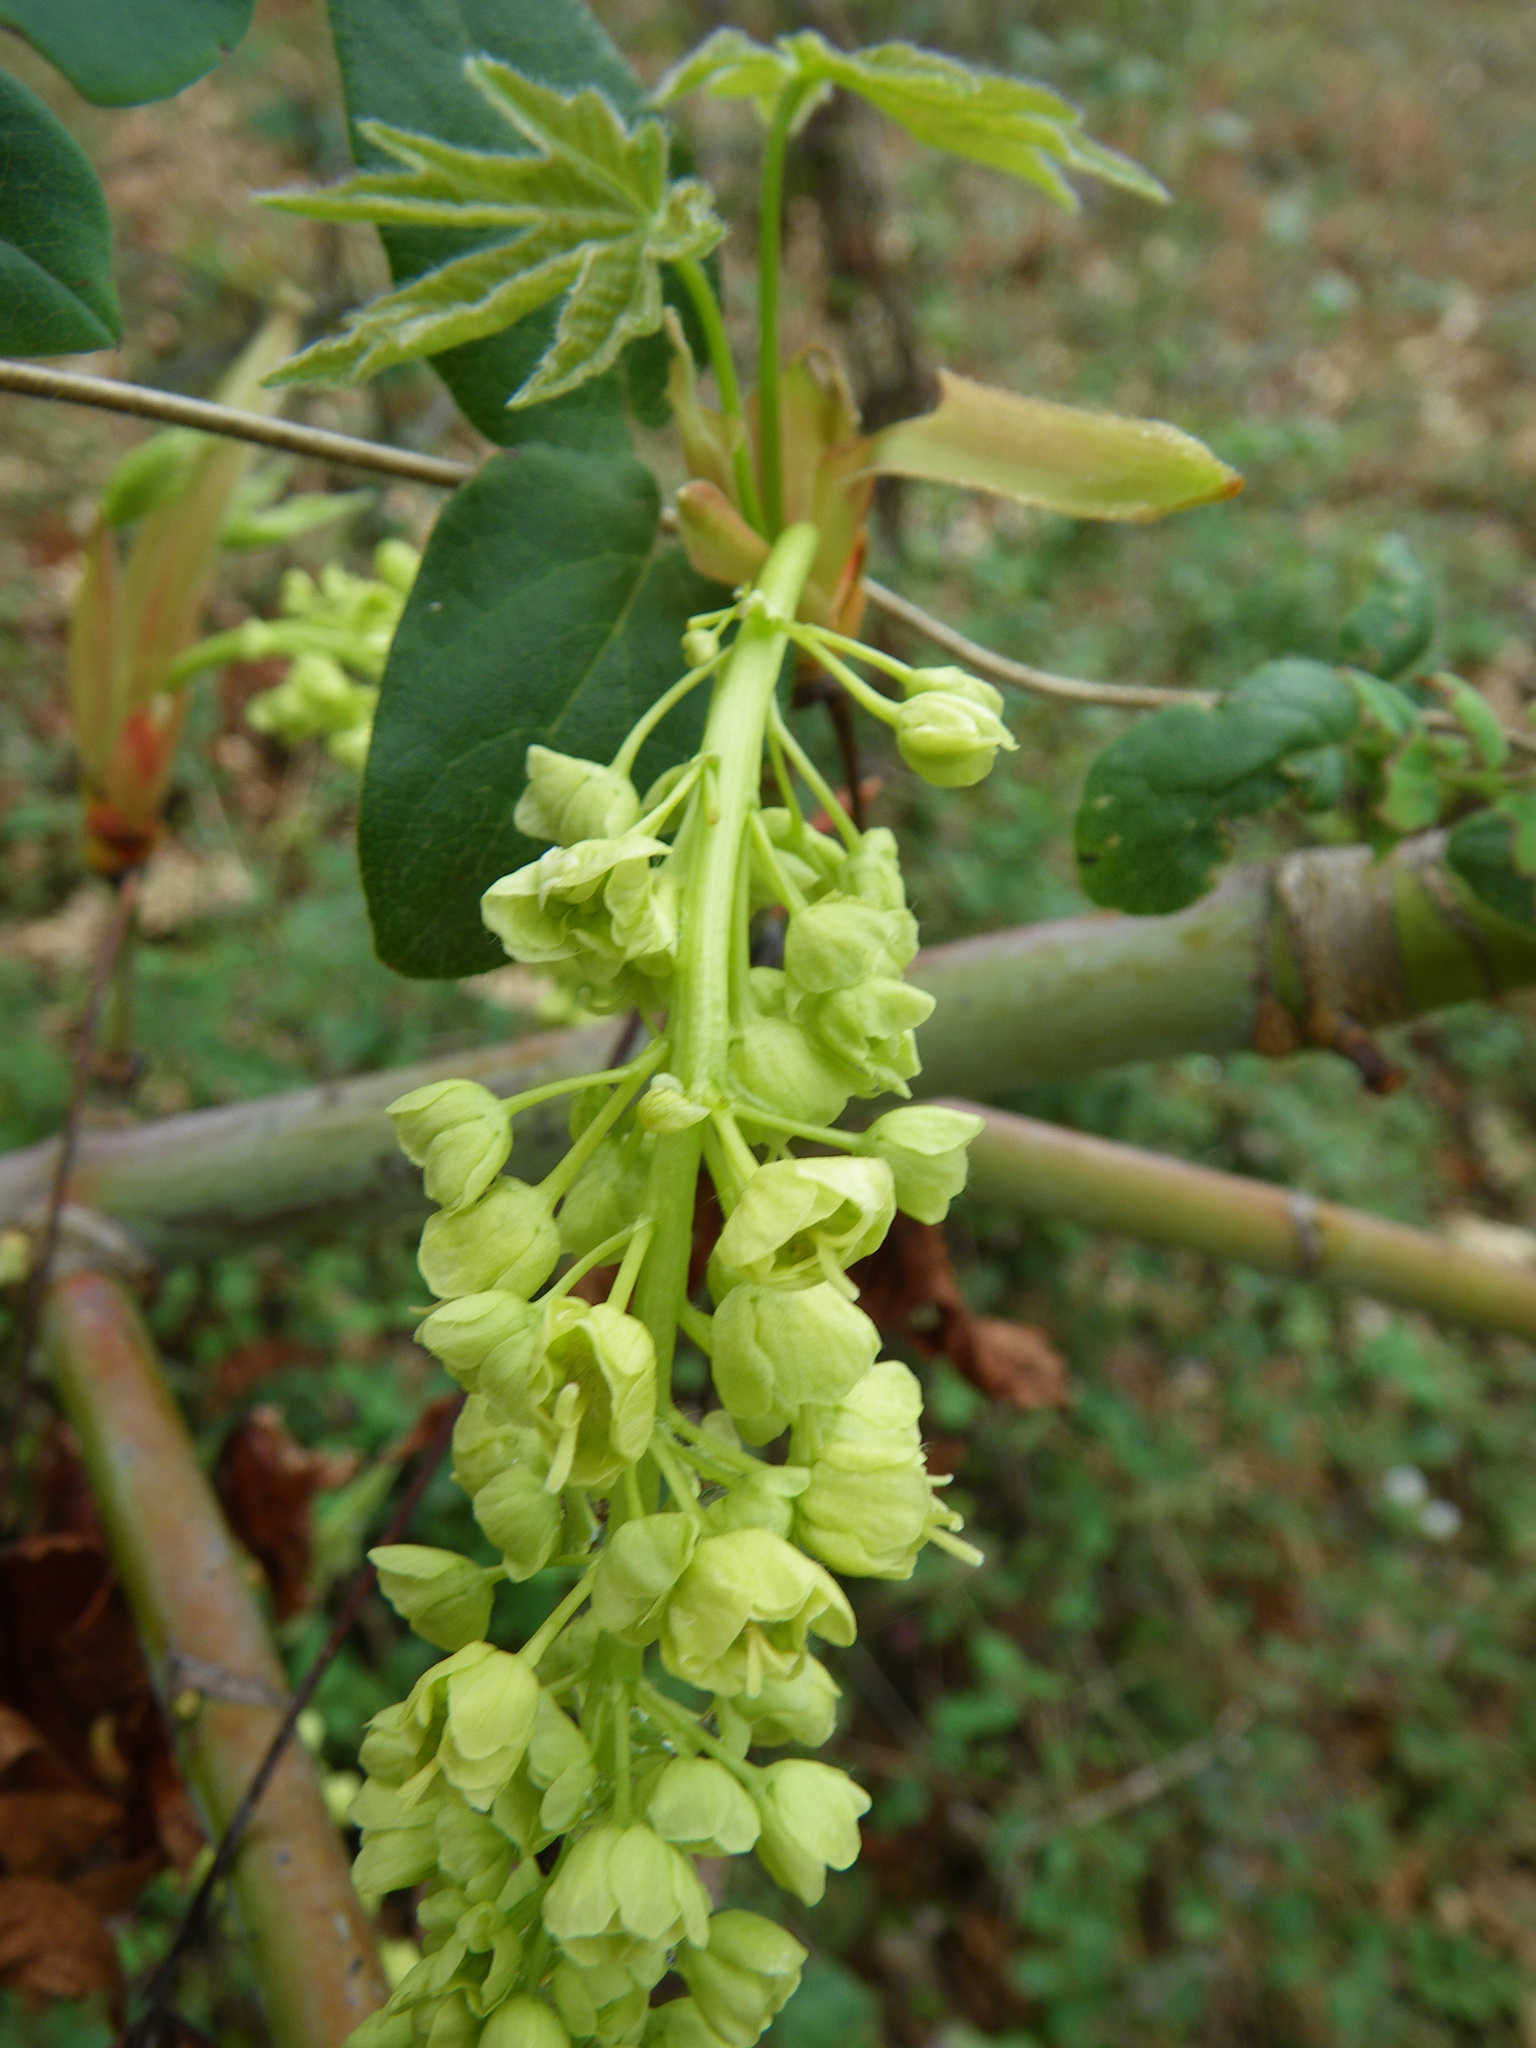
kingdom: Plantae
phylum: Tracheophyta
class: Magnoliopsida
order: Sapindales
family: Sapindaceae
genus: Acer
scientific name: Acer macrophyllum
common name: Oregon maple
